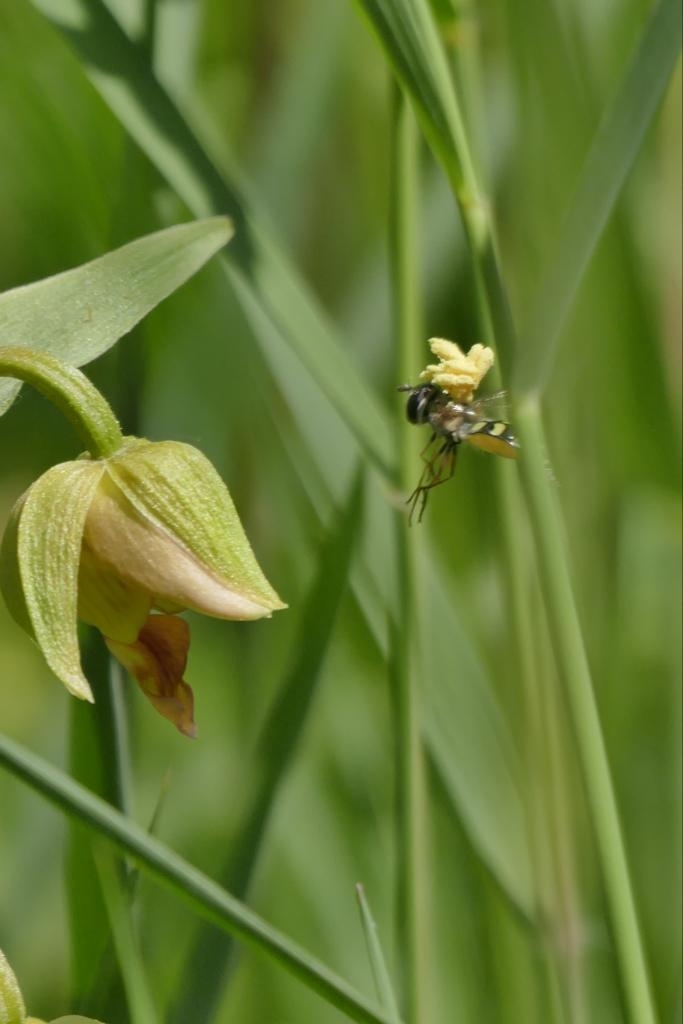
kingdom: Plantae
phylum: Tracheophyta
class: Liliopsida
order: Asparagales
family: Orchidaceae
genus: Epipactis
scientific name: Epipactis royleana
